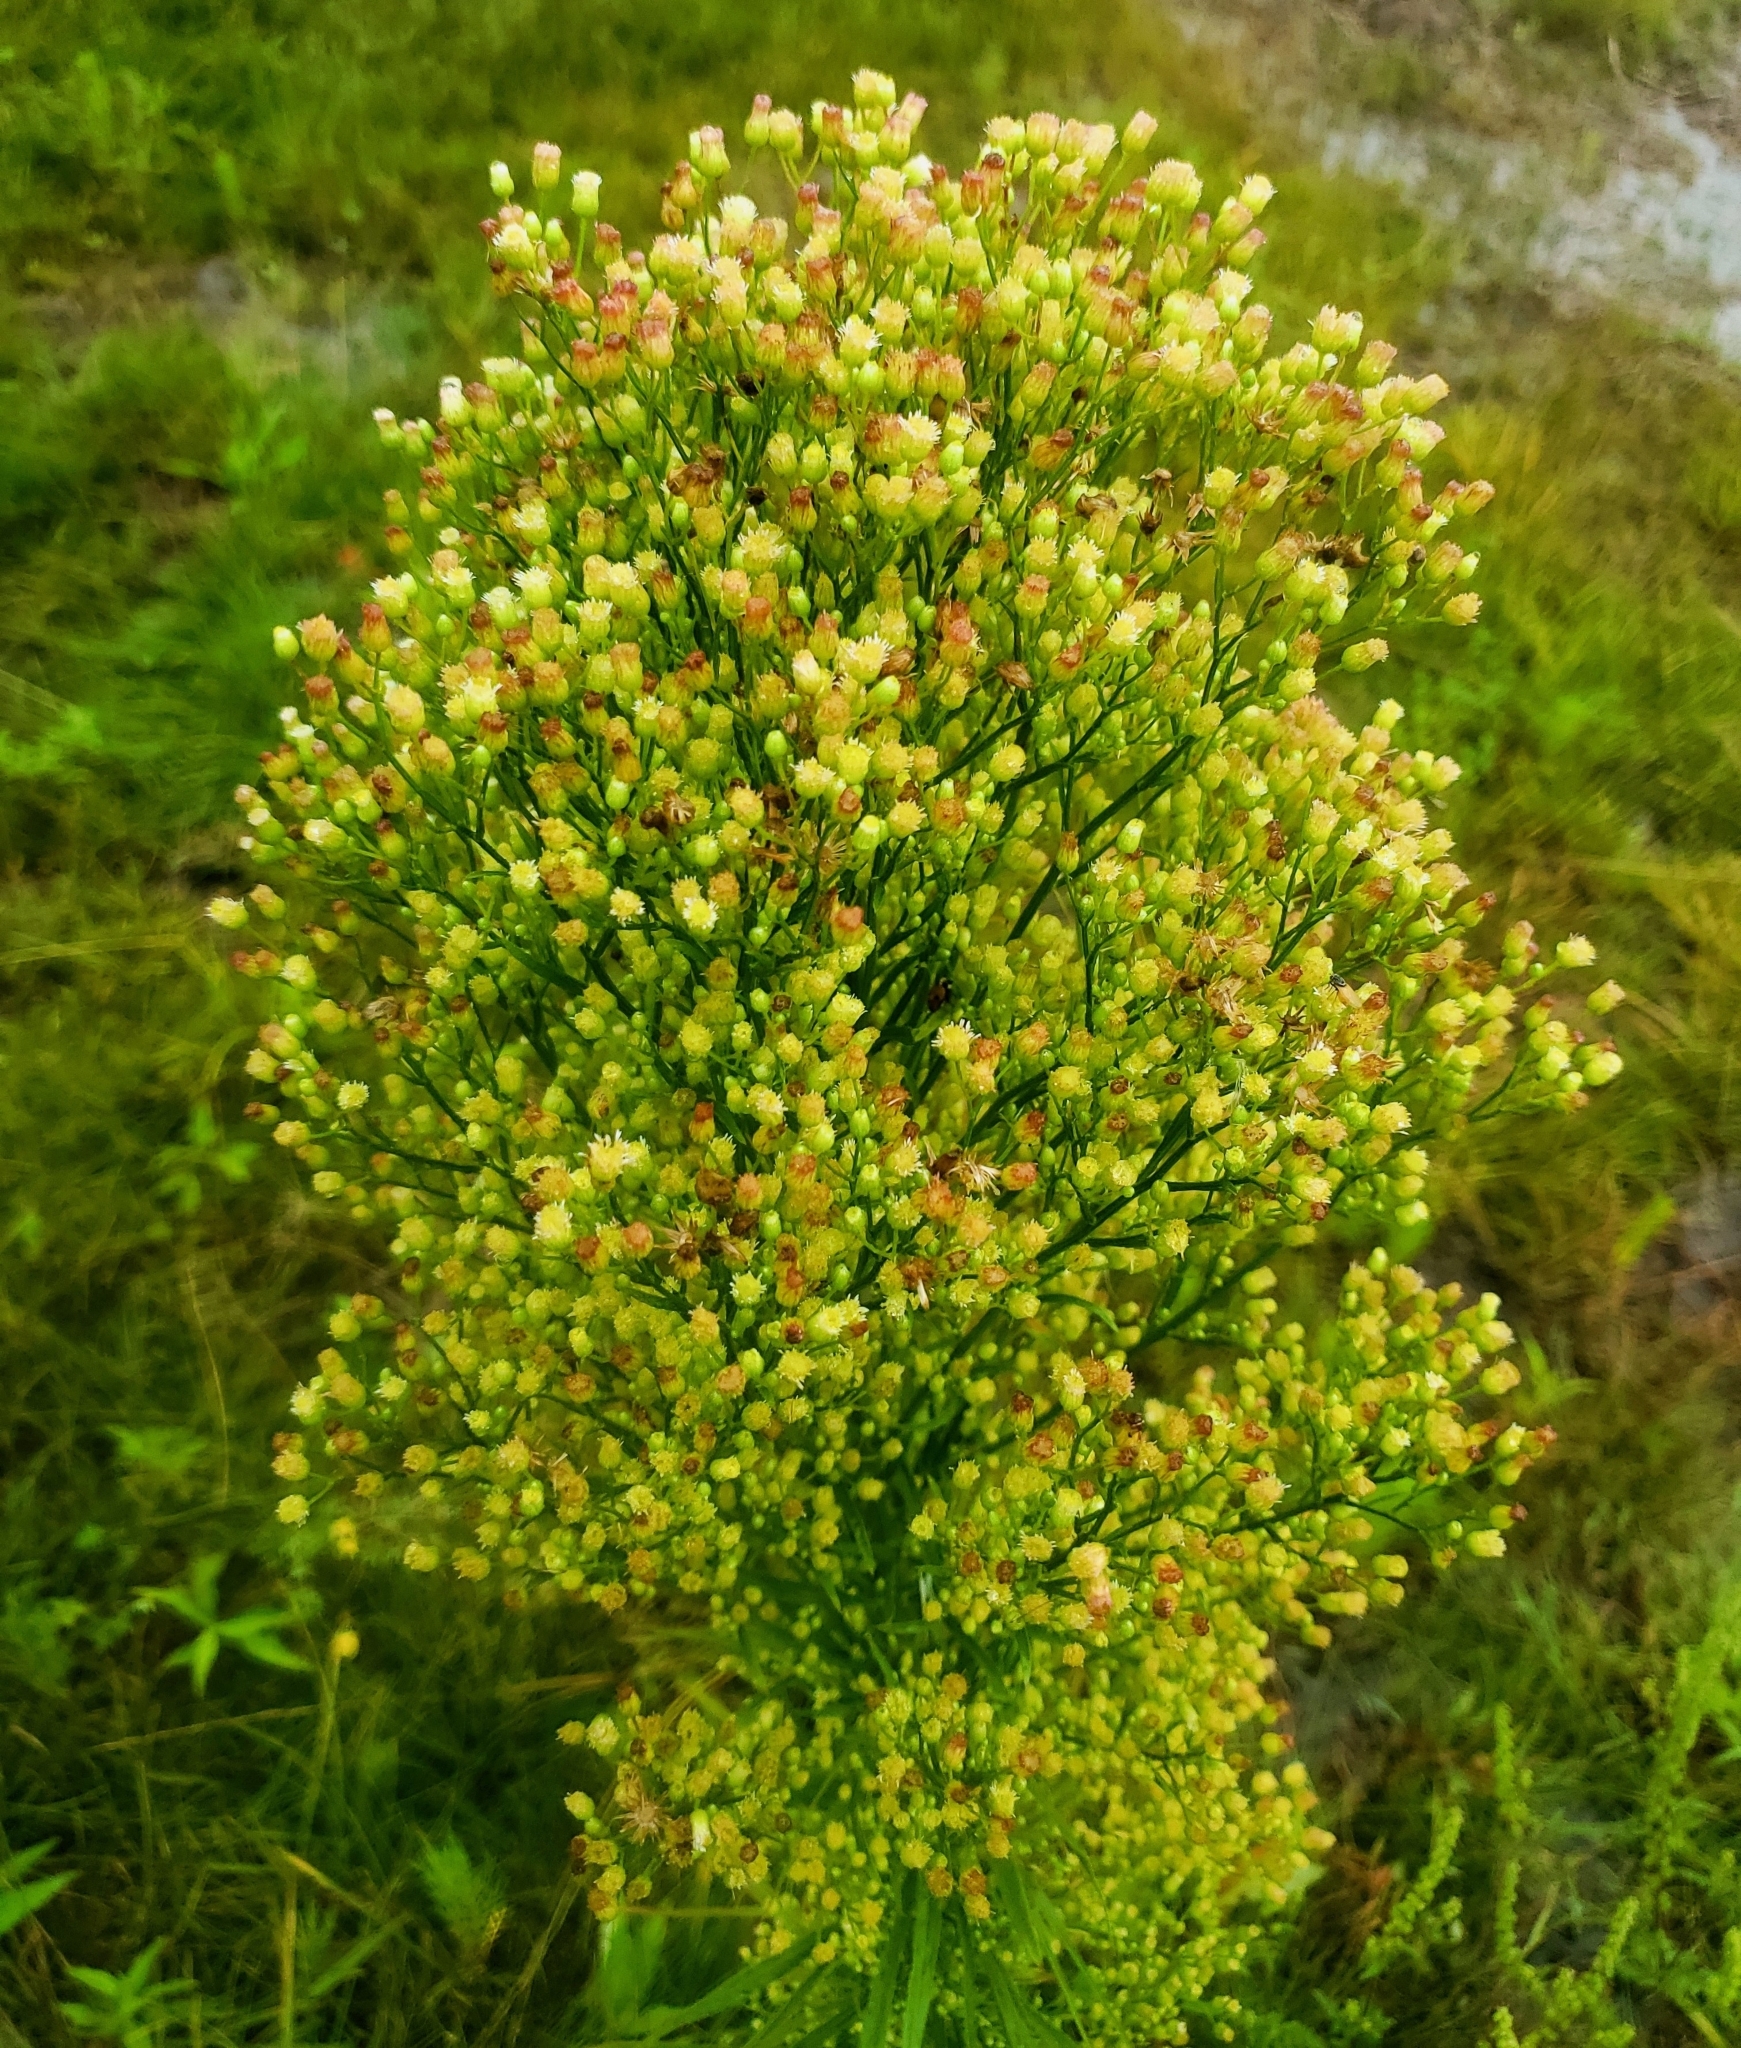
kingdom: Plantae
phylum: Tracheophyta
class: Magnoliopsida
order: Asterales
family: Asteraceae
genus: Erigeron
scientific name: Erigeron canadensis
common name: Canadian fleabane
